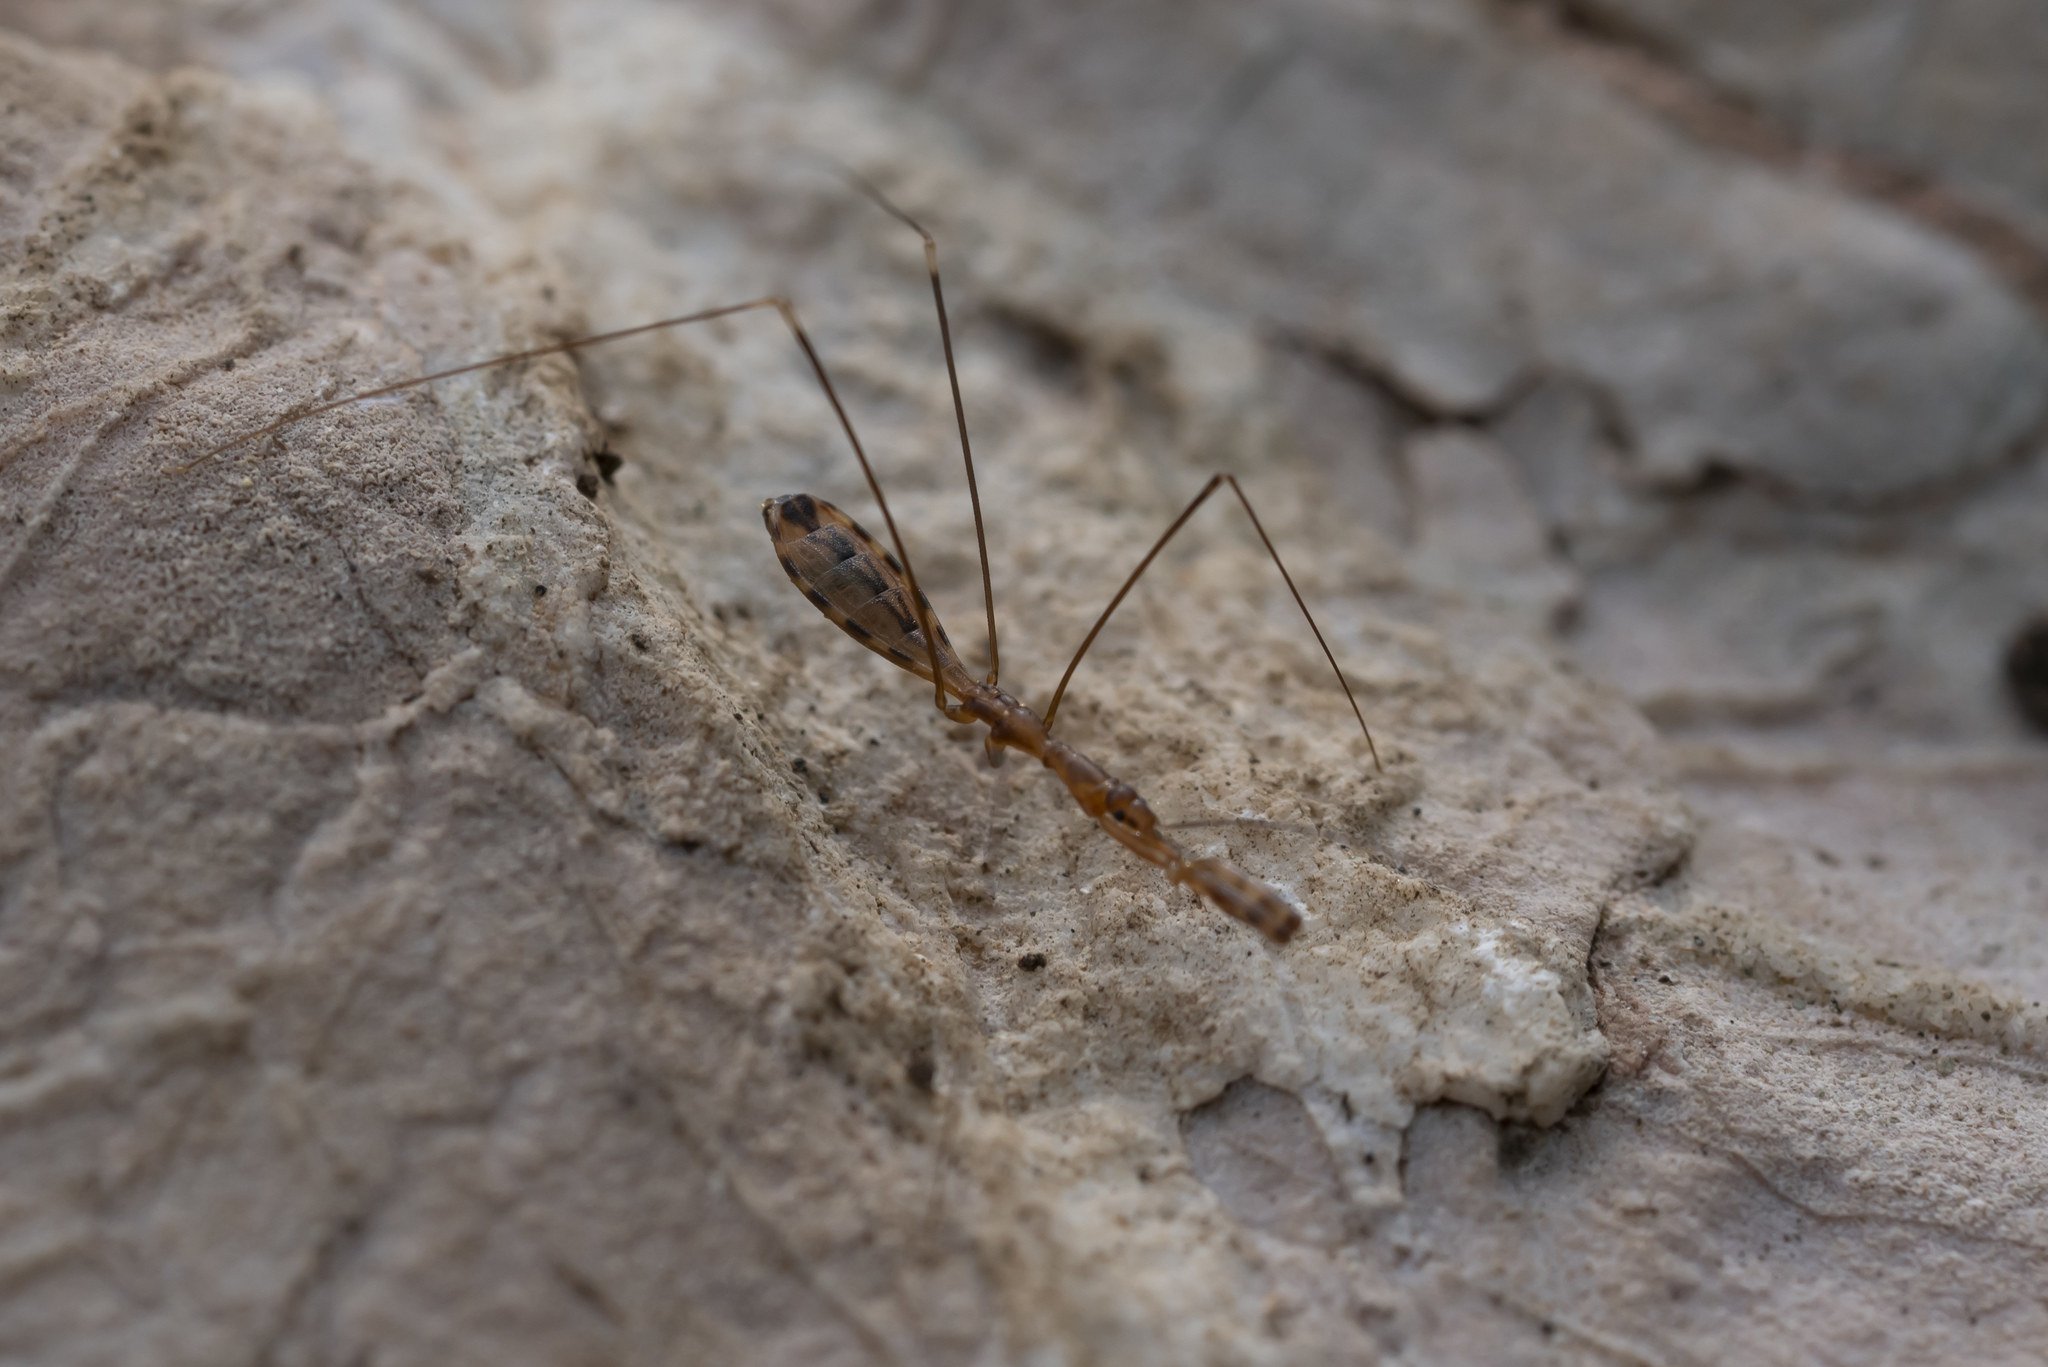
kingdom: Animalia
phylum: Arthropoda
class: Insecta
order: Hemiptera
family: Reduviidae
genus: Ploiaria
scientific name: Ploiaria domestica
